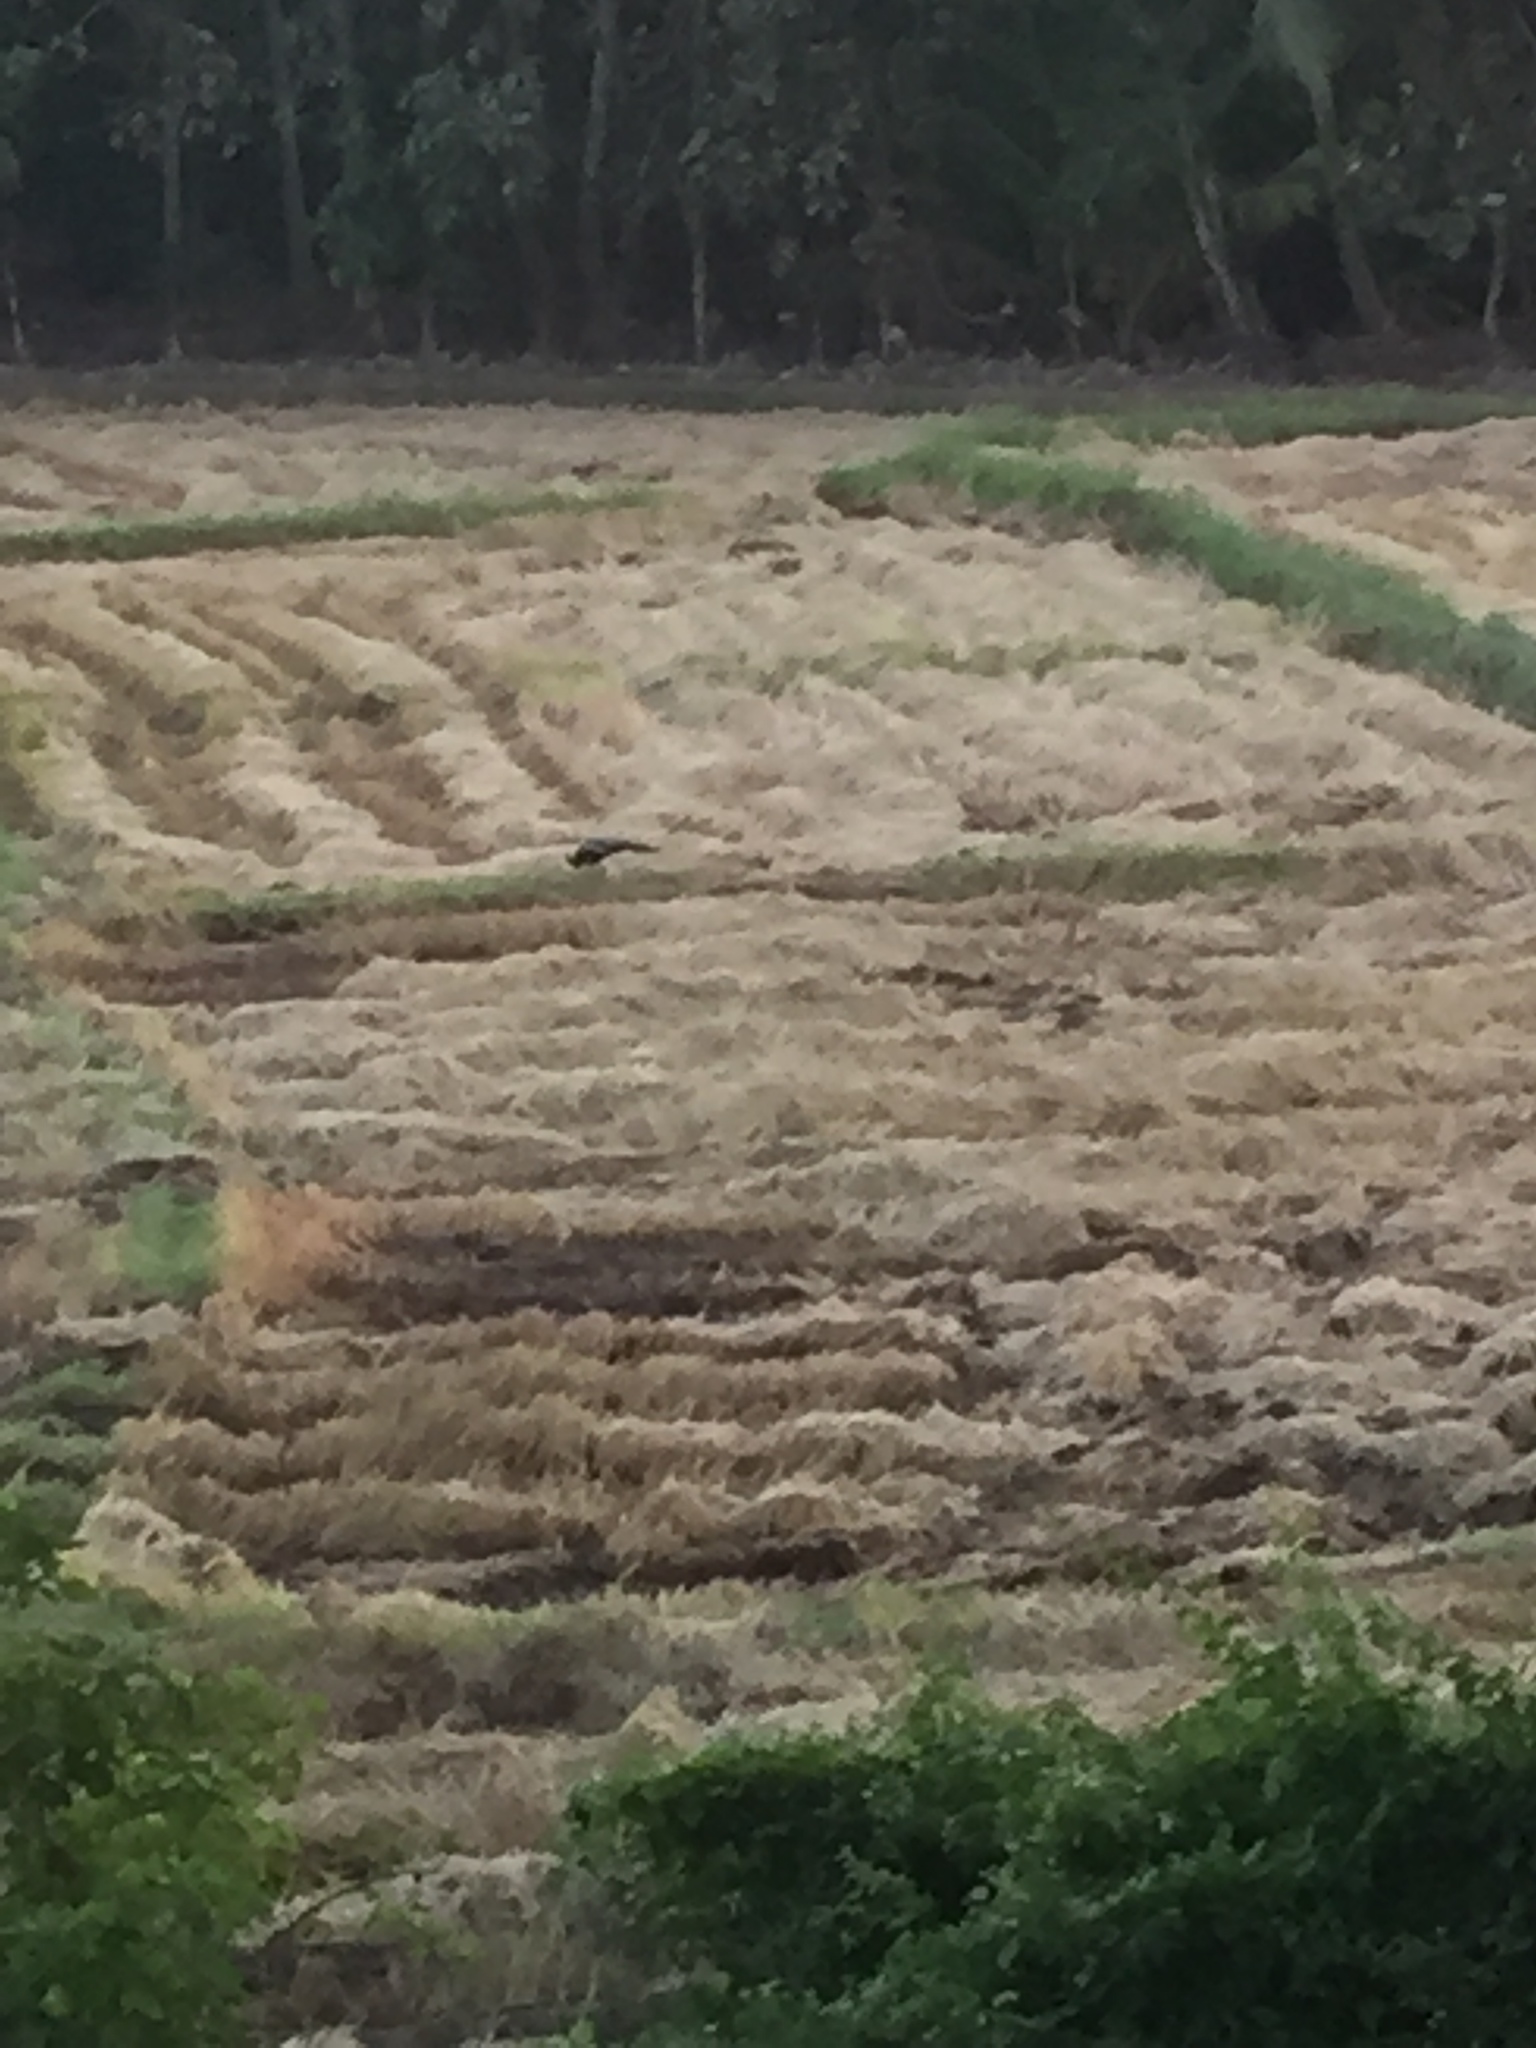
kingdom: Animalia
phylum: Chordata
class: Aves
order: Galliformes
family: Phasianidae
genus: Pavo
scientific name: Pavo cristatus
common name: Indian peafowl
